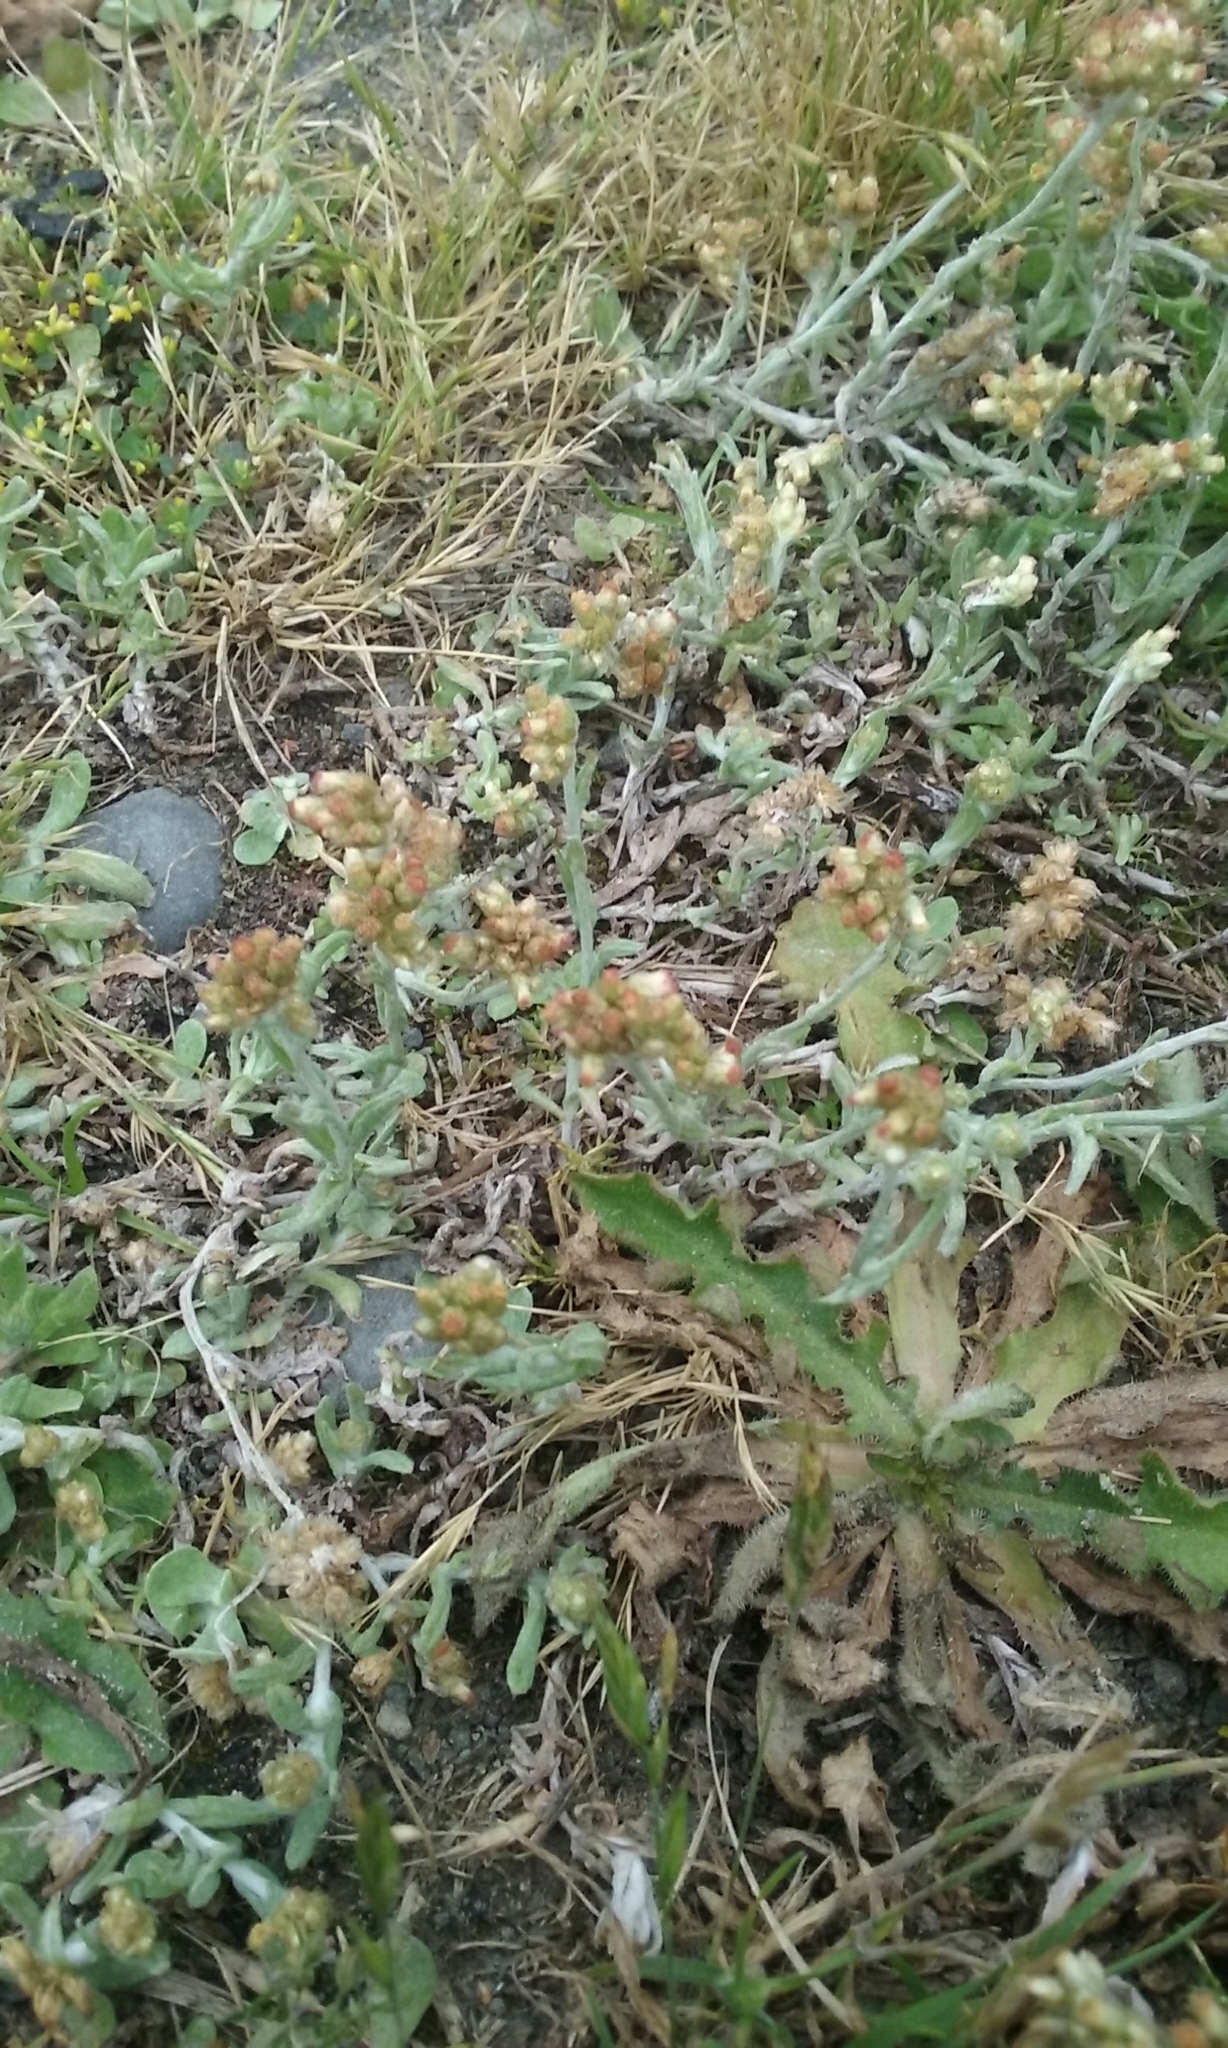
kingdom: Plantae
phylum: Tracheophyta
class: Magnoliopsida
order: Asterales
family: Asteraceae
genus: Helichrysum
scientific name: Helichrysum luteoalbum
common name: Daisy
